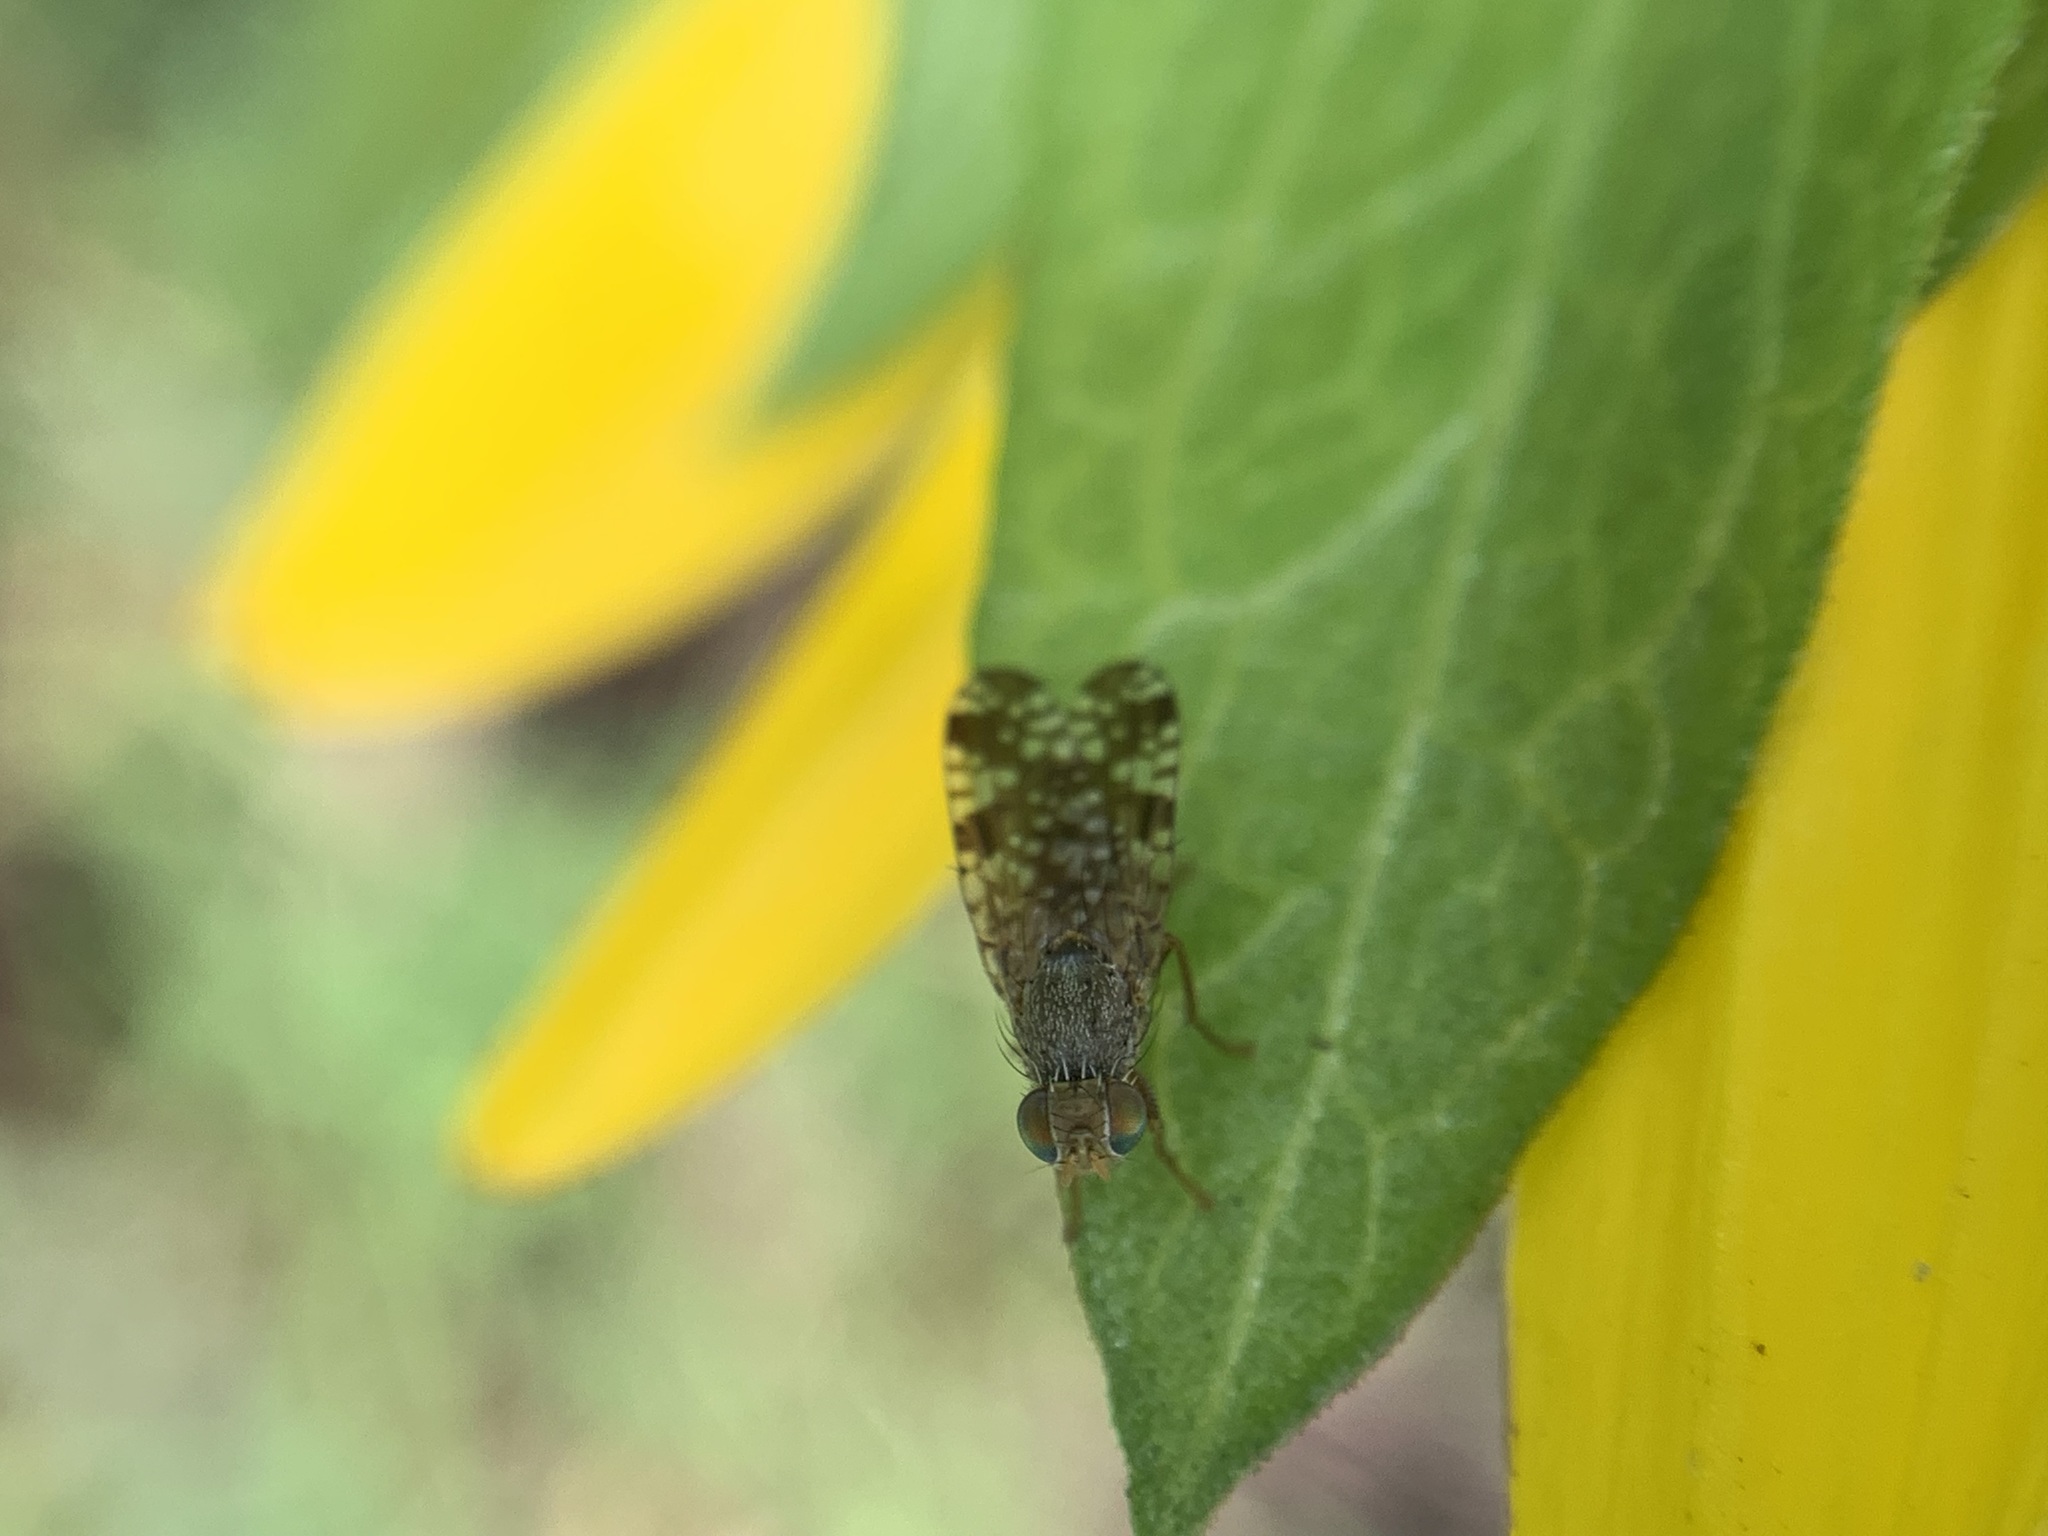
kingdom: Animalia
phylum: Arthropoda
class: Insecta
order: Diptera
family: Tephritidae
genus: Neotephritis
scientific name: Neotephritis finalis
